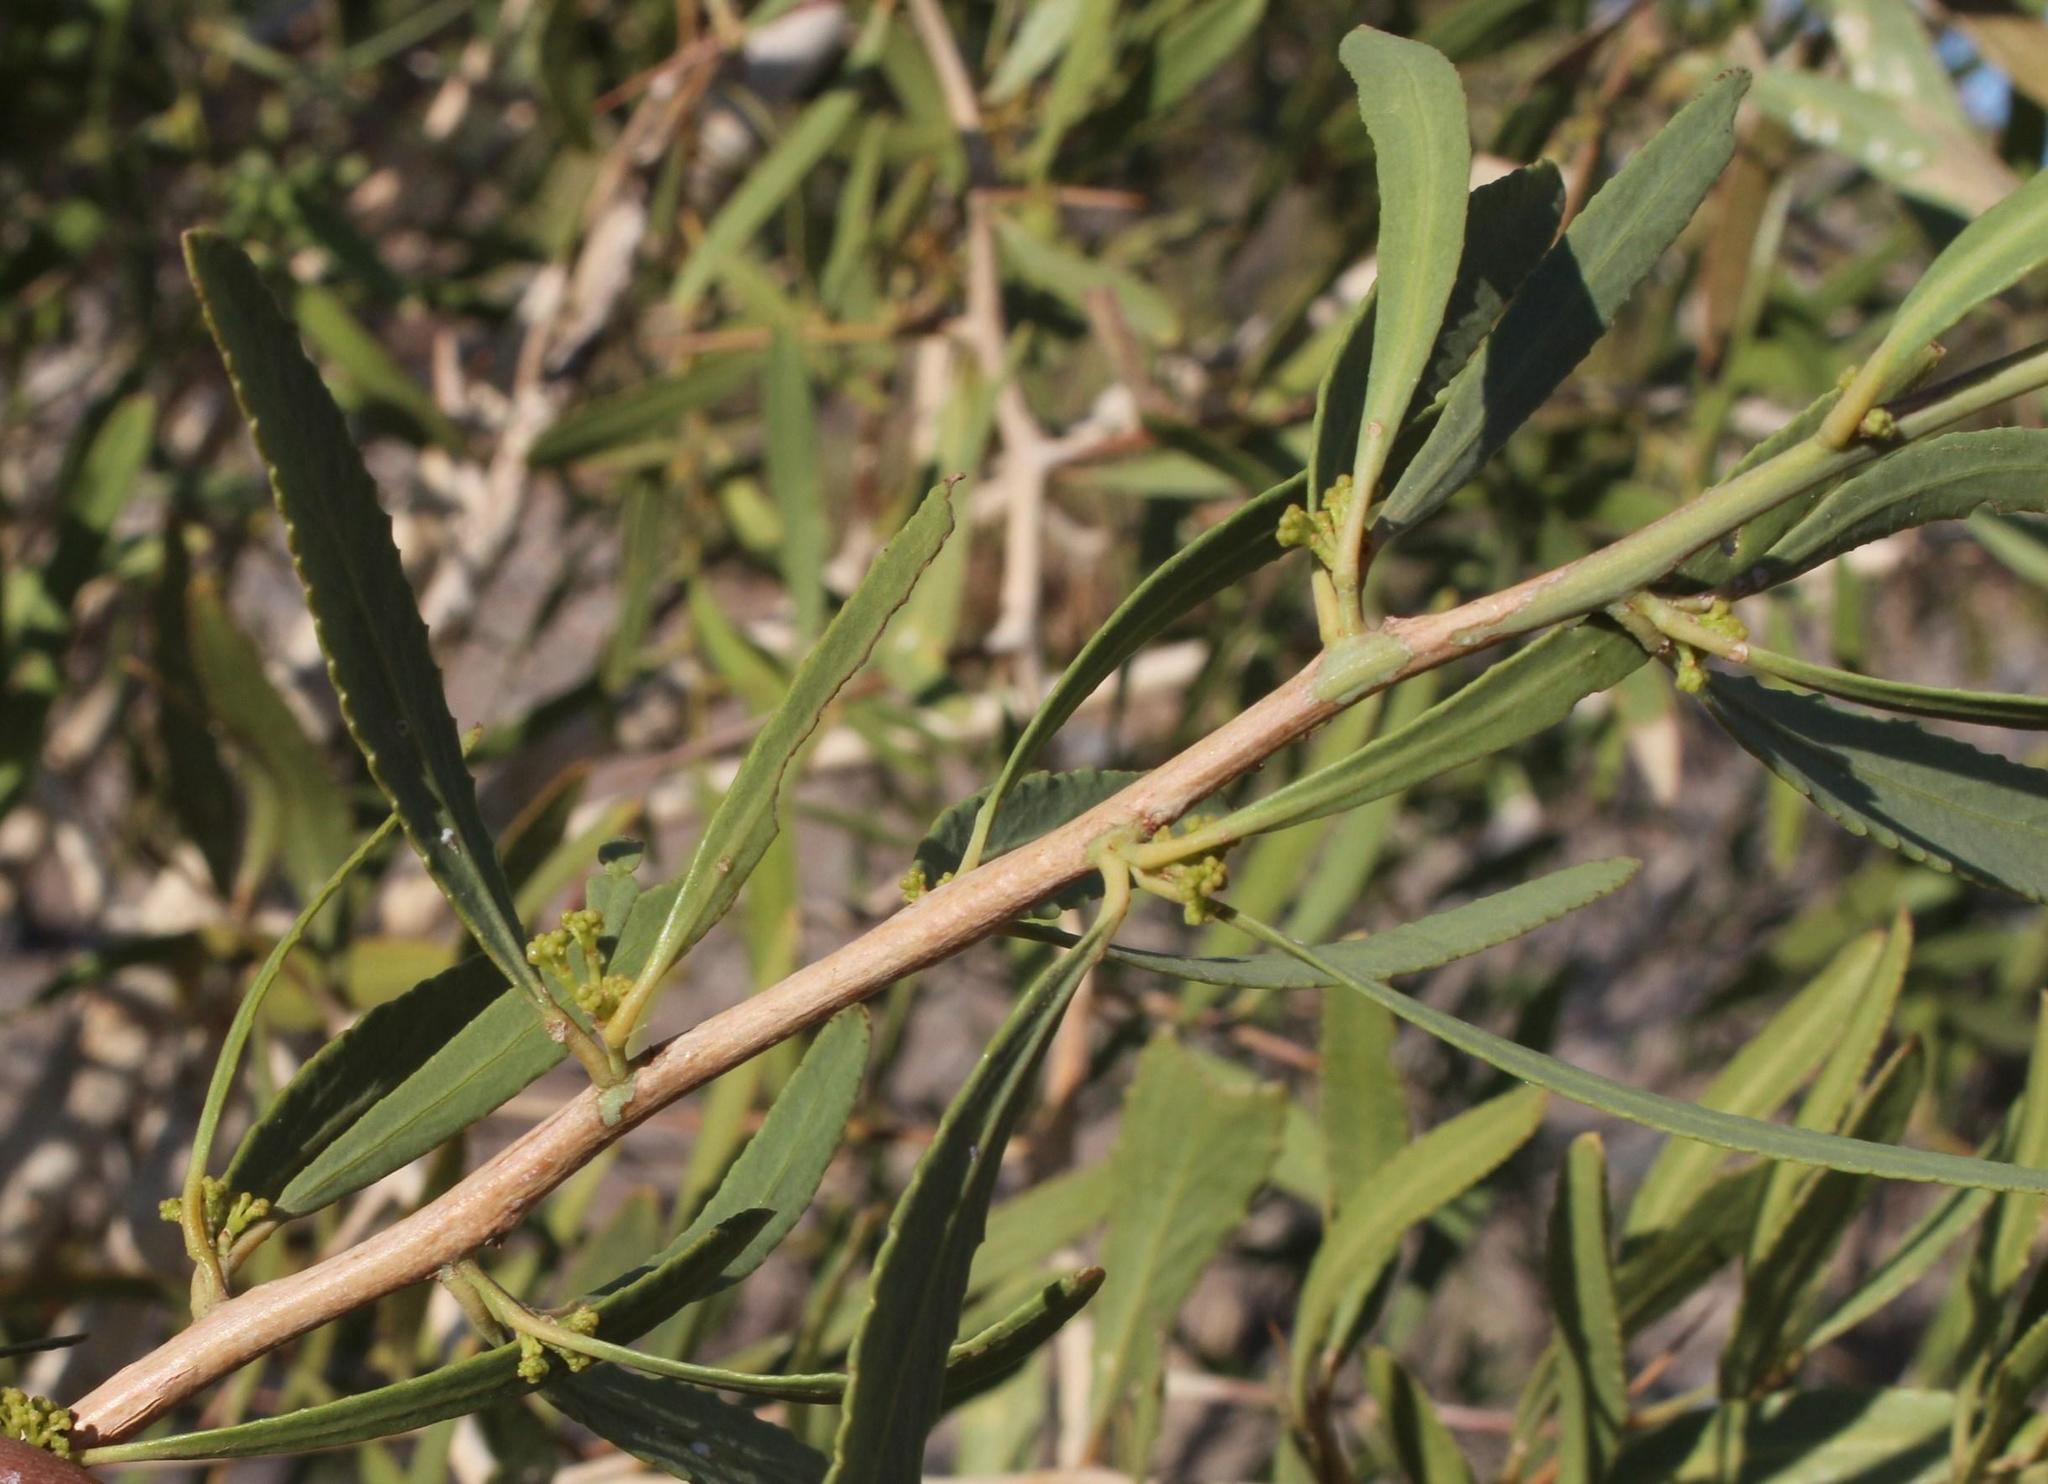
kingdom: Plantae
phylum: Tracheophyta
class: Magnoliopsida
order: Celastrales
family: Celastraceae
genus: Gymnosporia
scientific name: Gymnosporia linearis
